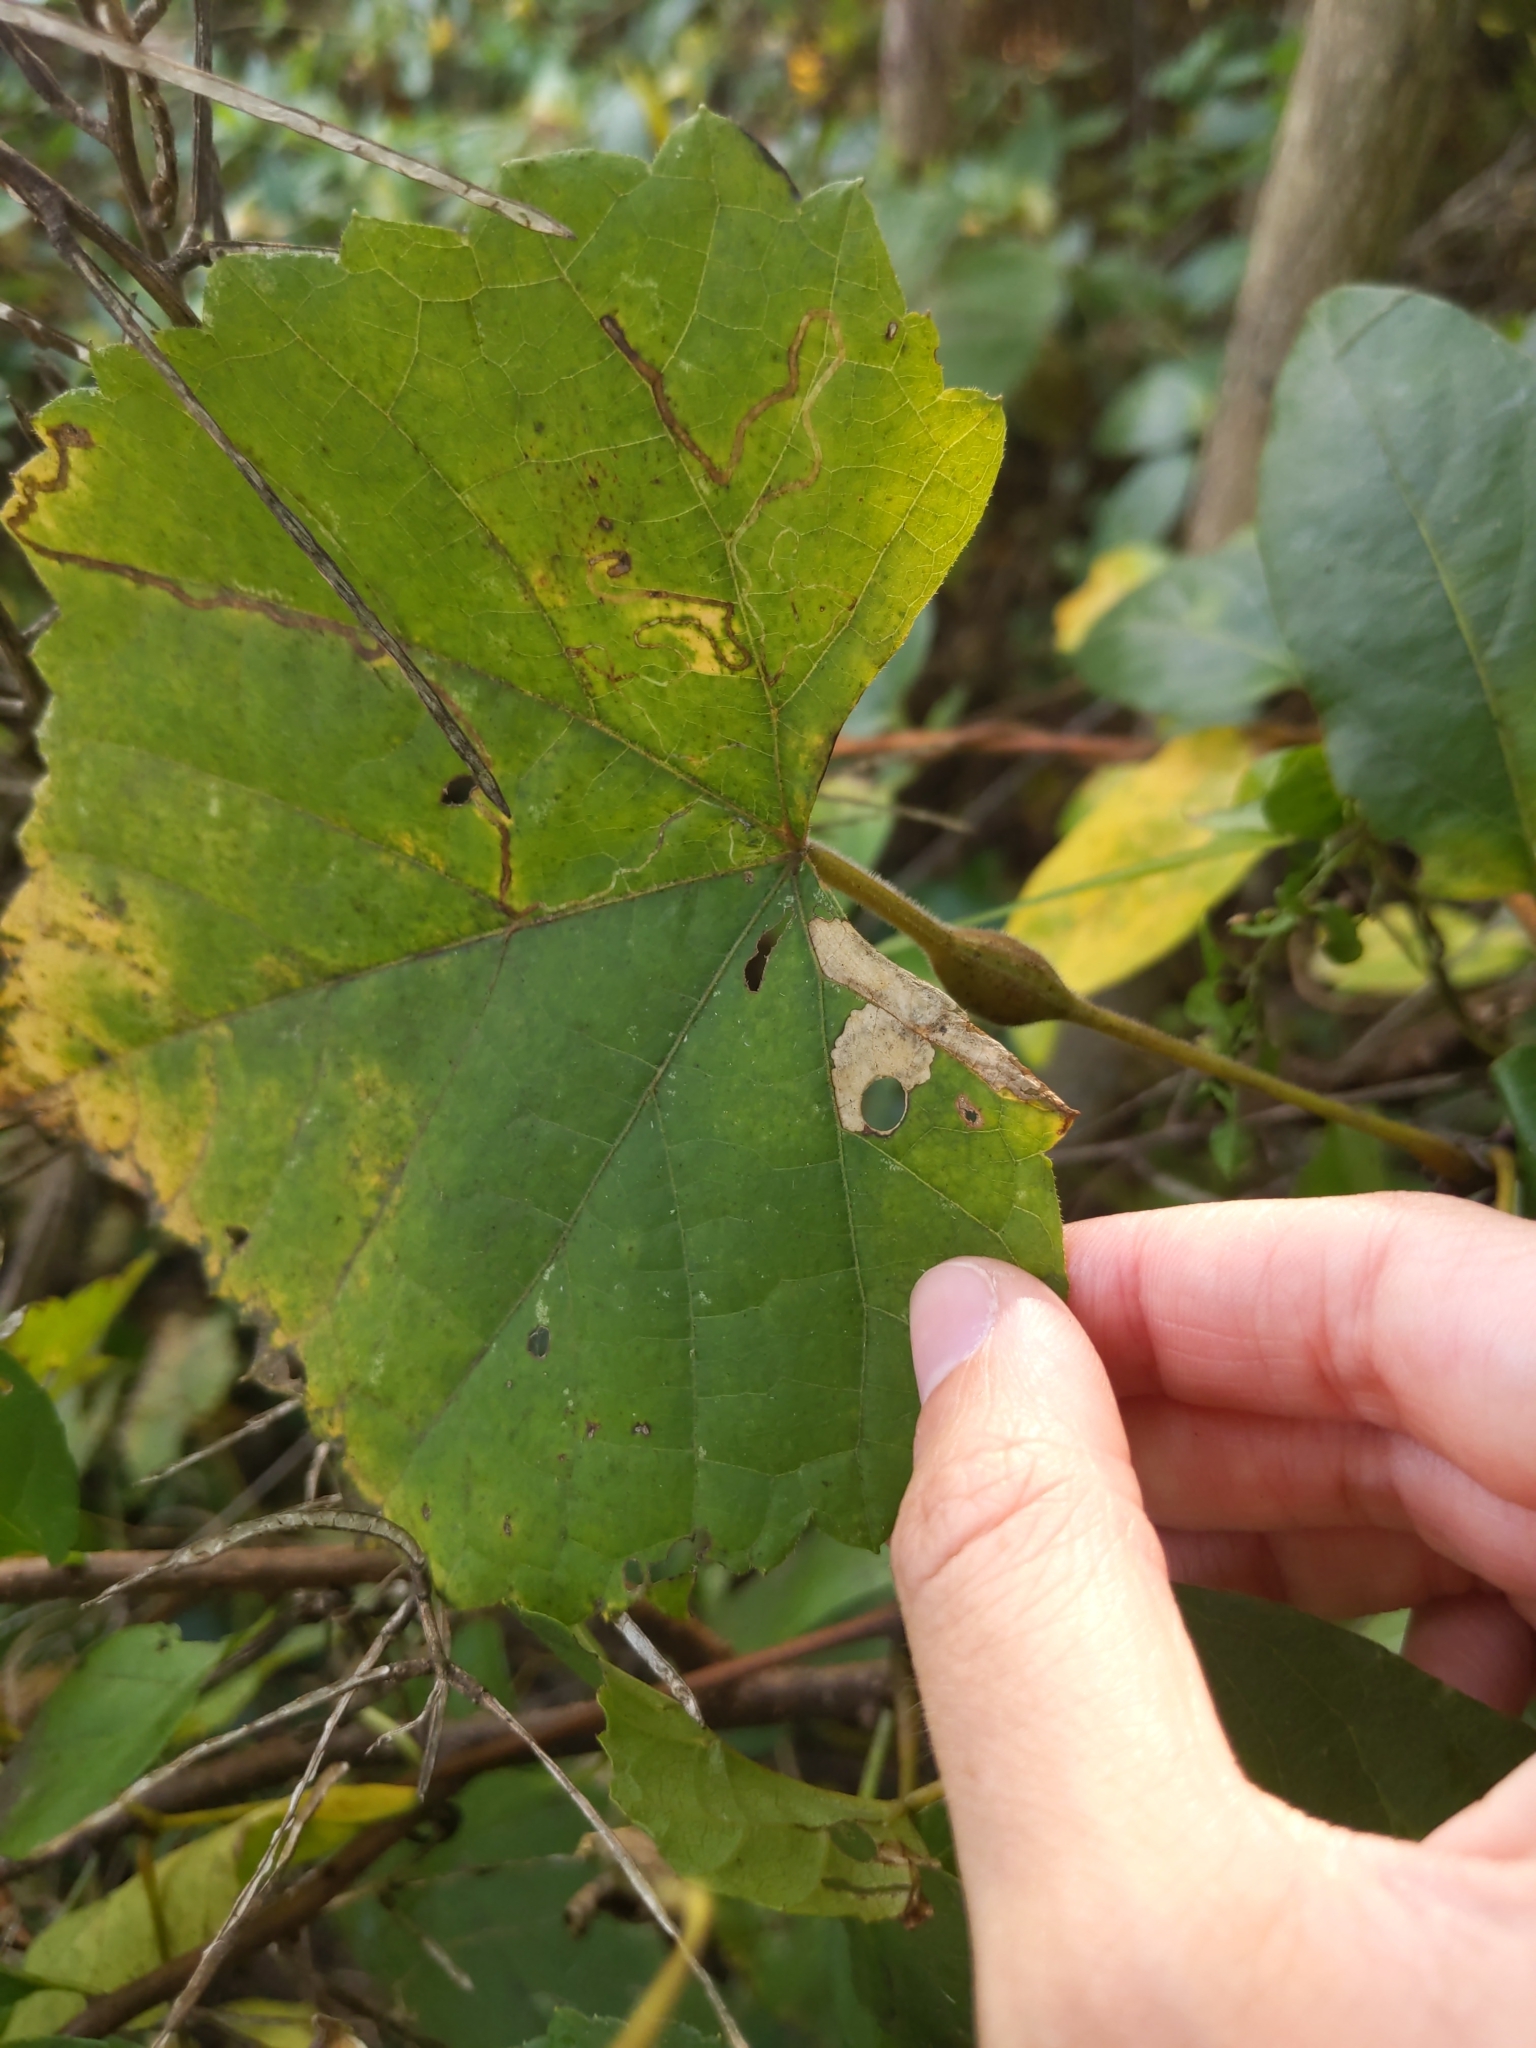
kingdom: Animalia
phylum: Arthropoda
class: Insecta
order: Diptera
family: Cecidomyiidae
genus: Neolasioptera
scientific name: Neolasioptera vitinea
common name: Grape leaf petiole gall
